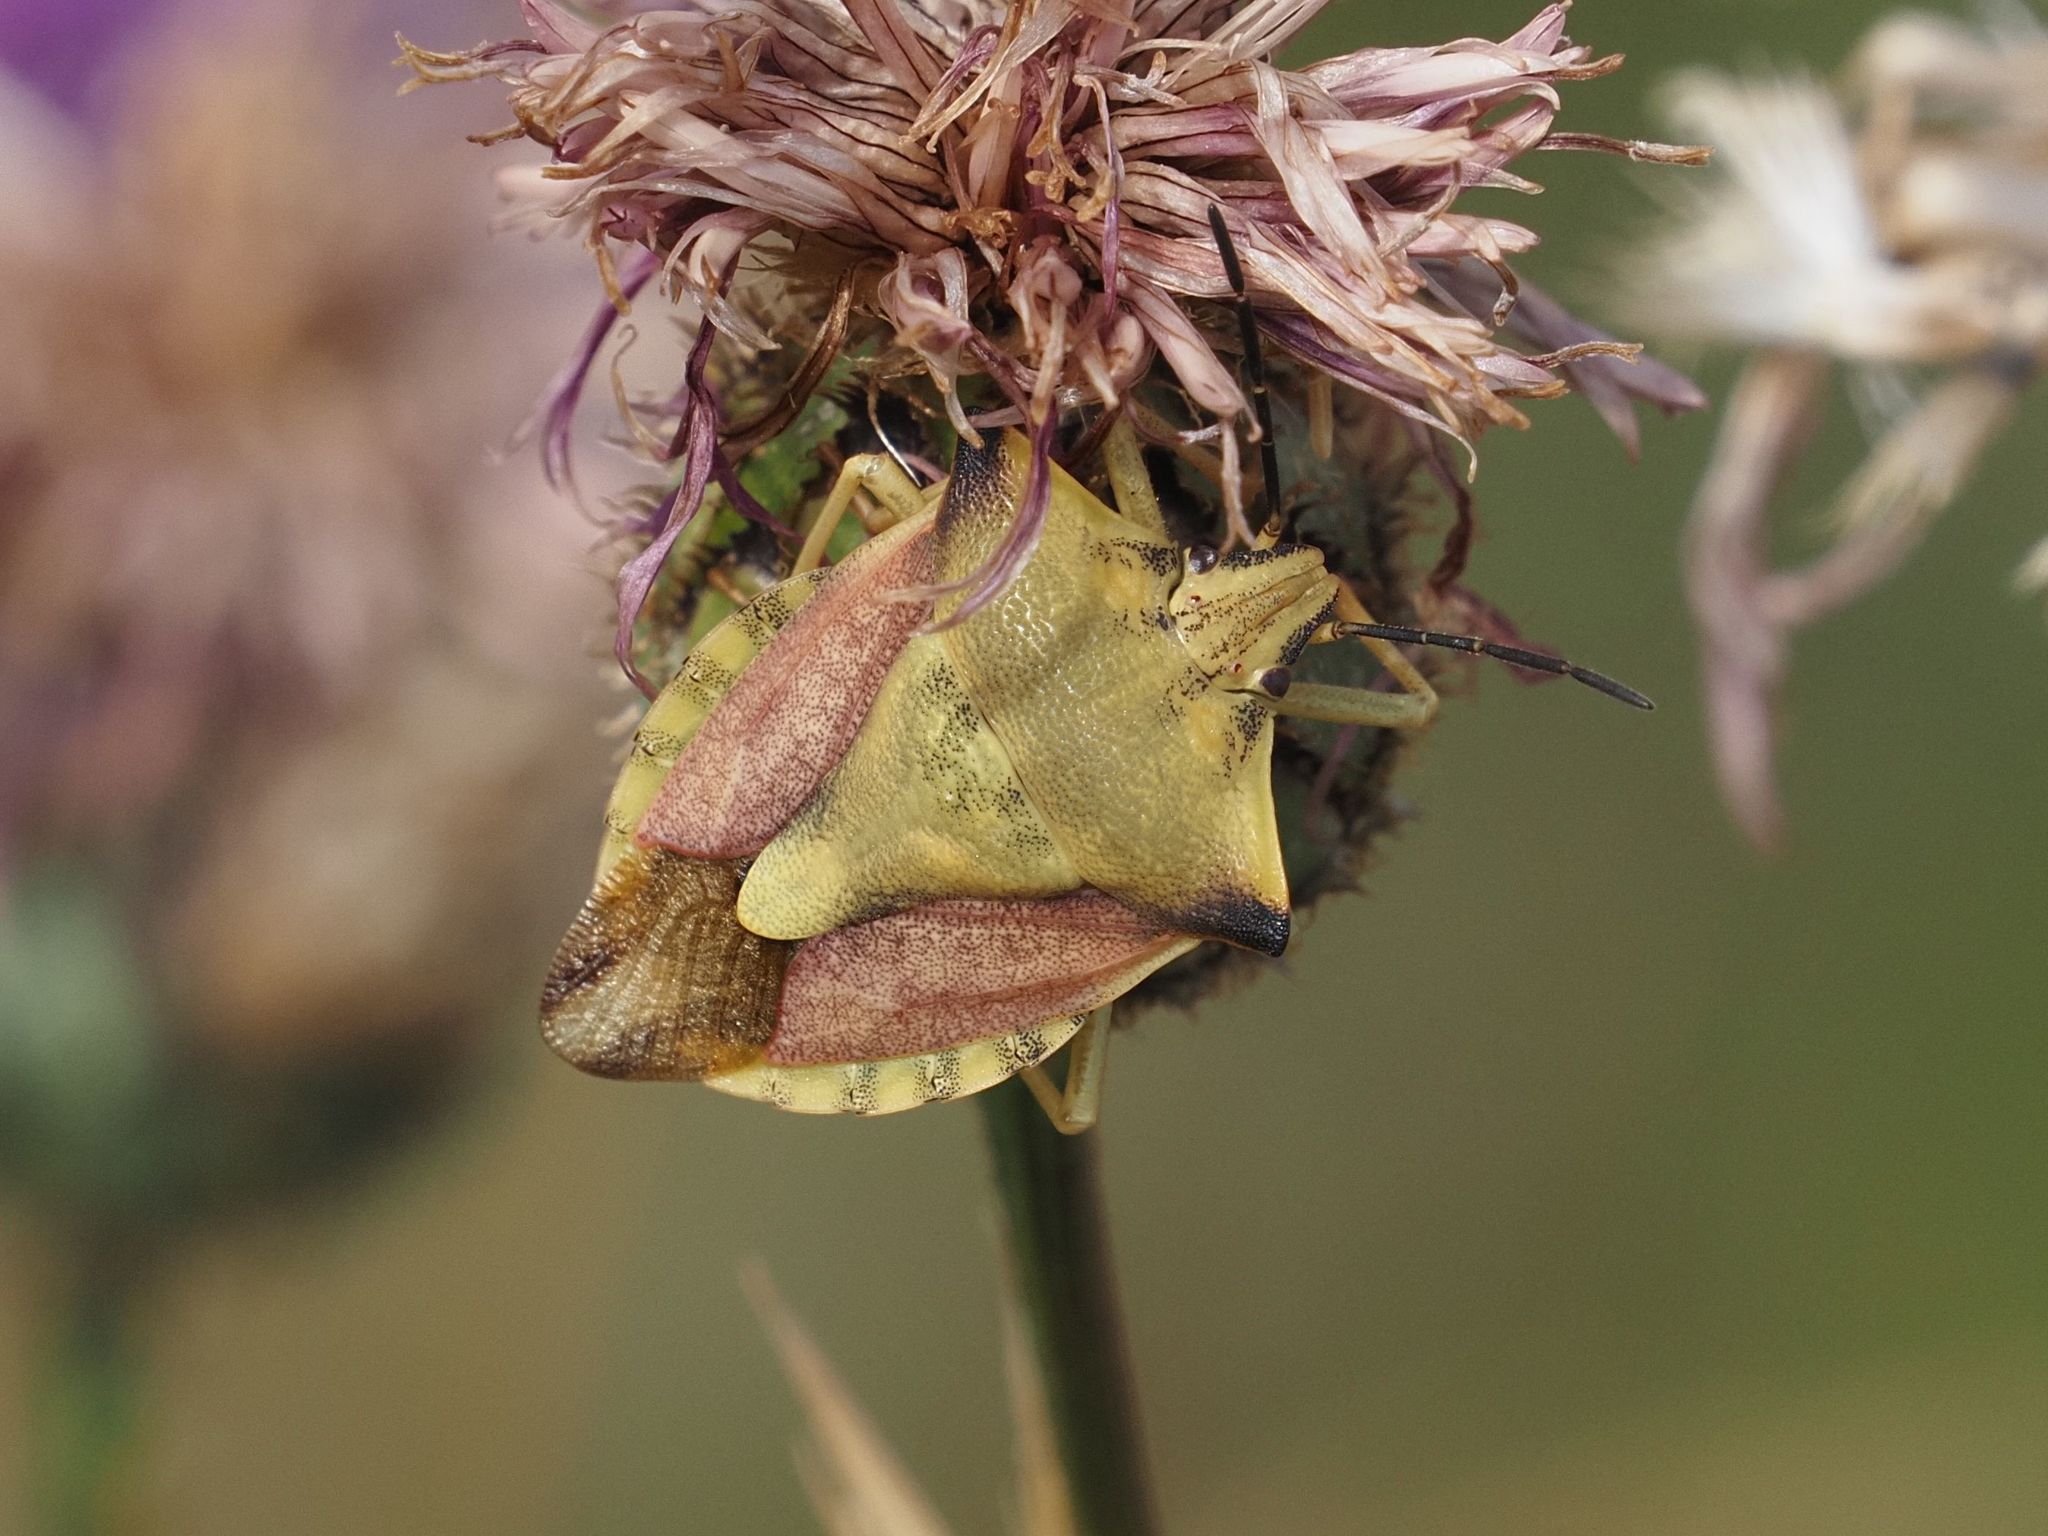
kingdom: Animalia
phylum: Arthropoda
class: Insecta
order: Hemiptera
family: Pentatomidae
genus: Carpocoris
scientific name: Carpocoris fuscispinus
